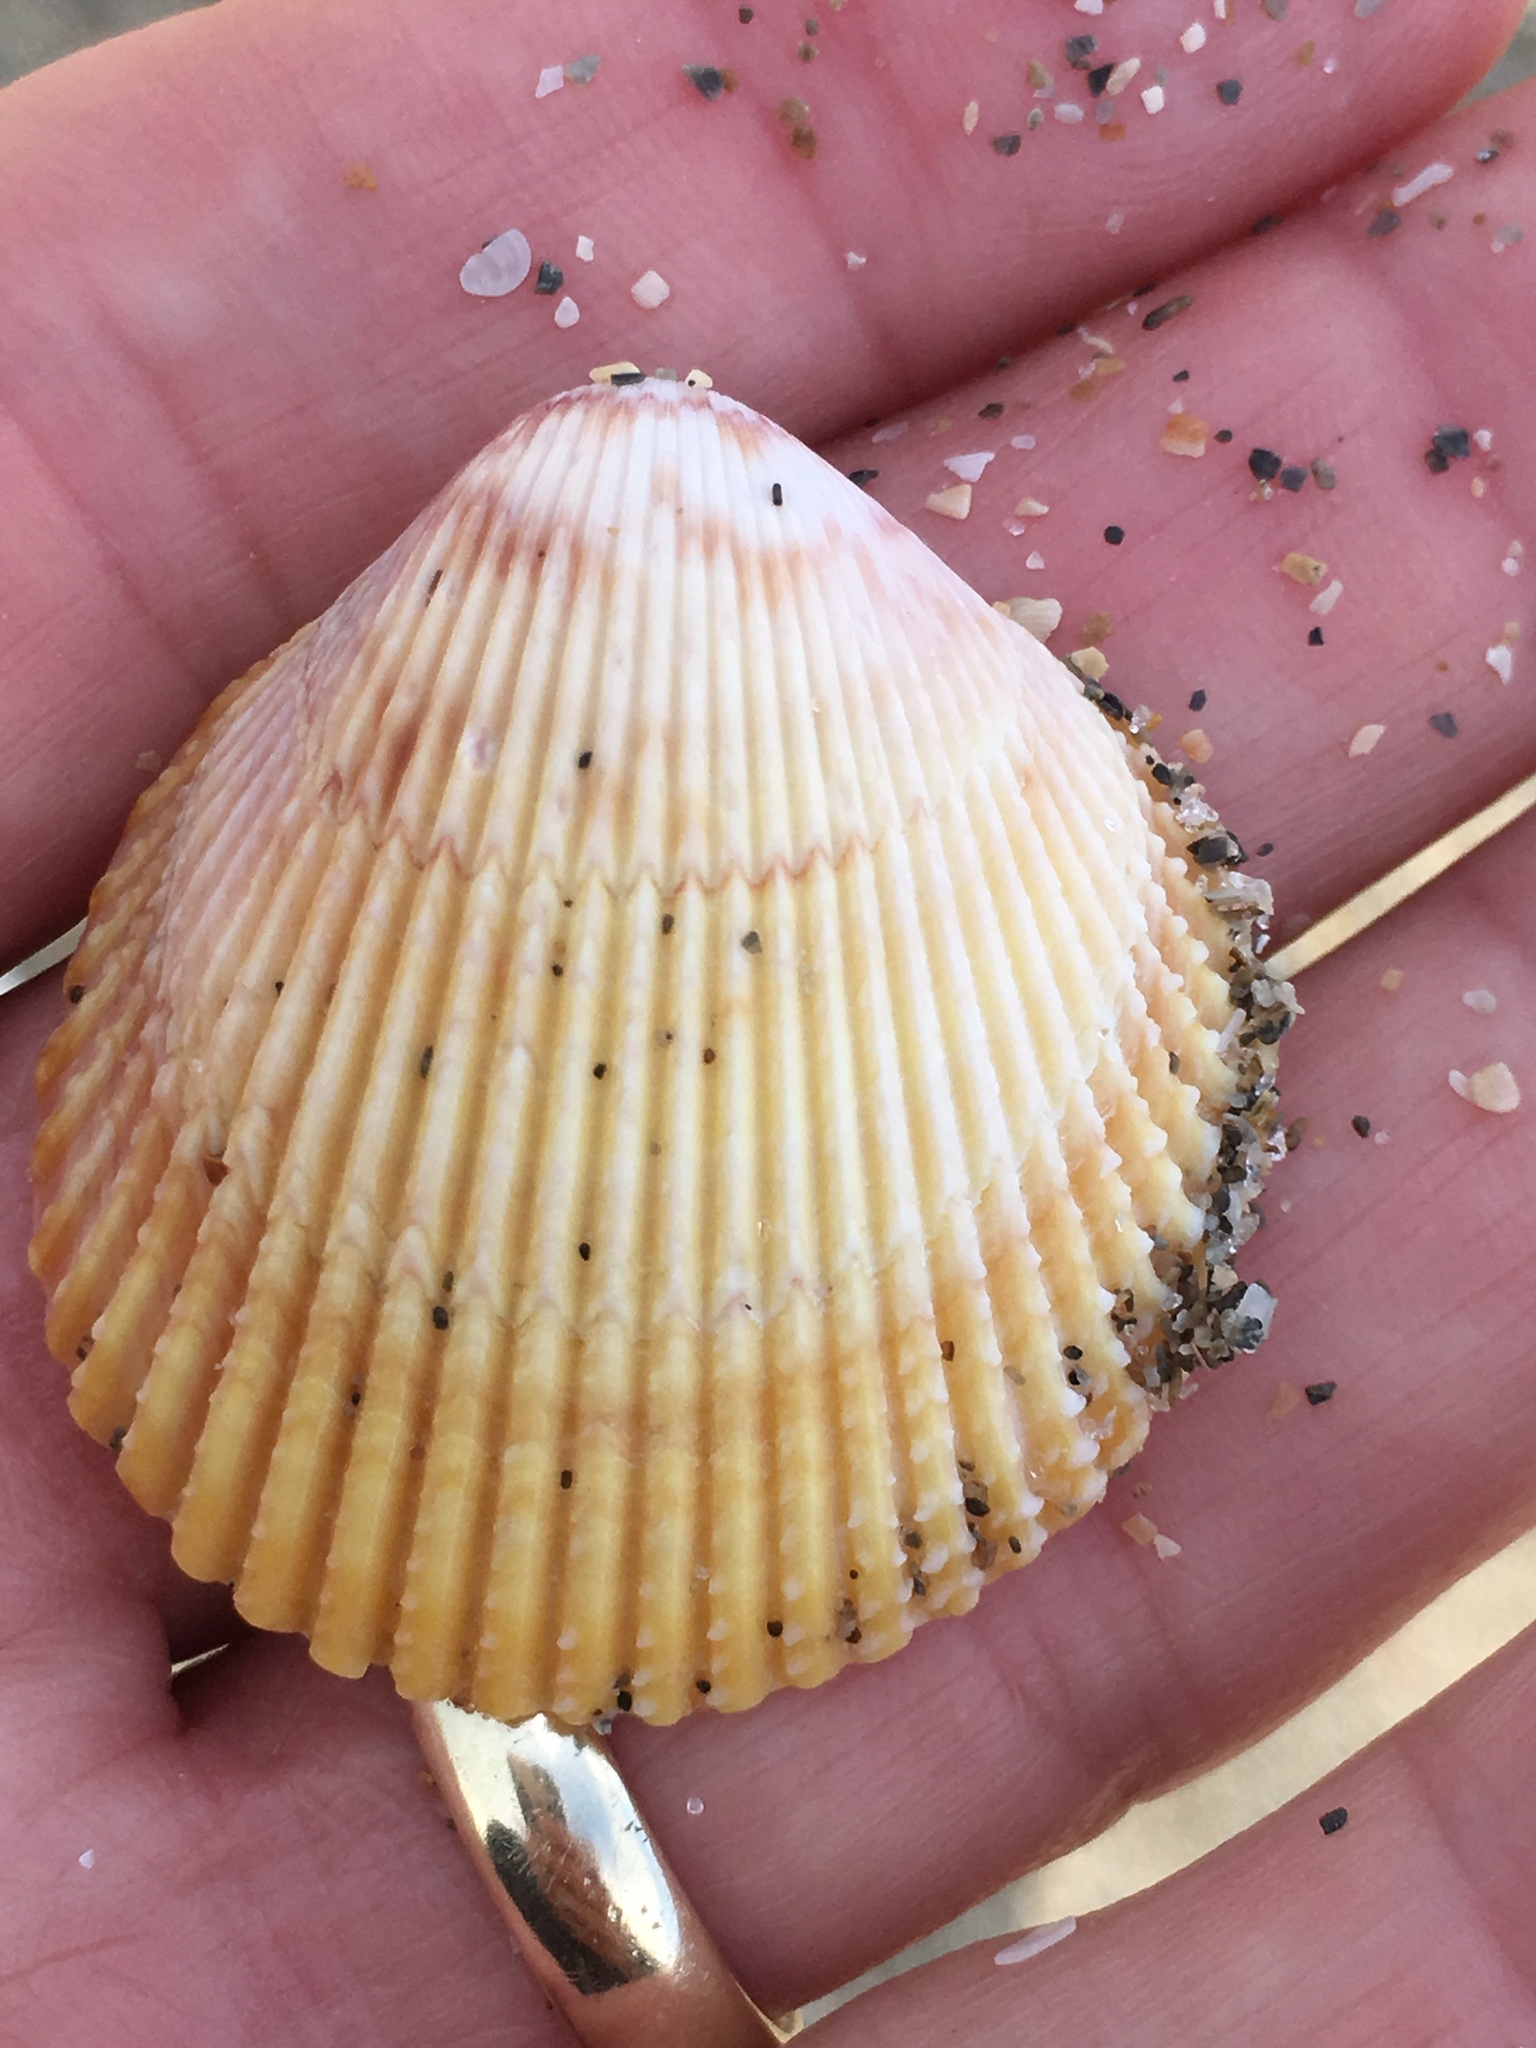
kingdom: Animalia
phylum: Mollusca
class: Bivalvia
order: Cardiida
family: Cardiidae
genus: Dallocardia
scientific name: Dallocardia muricata
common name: Yellow pricklycockle
